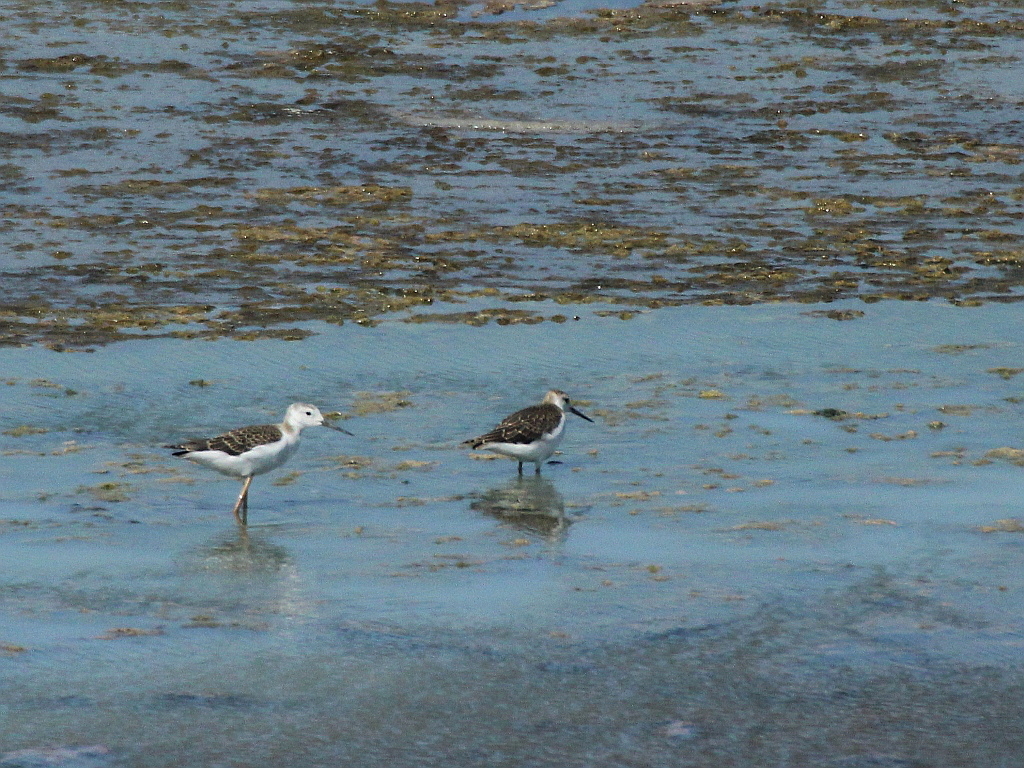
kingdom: Animalia
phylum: Chordata
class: Aves
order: Charadriiformes
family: Recurvirostridae
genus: Himantopus
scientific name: Himantopus himantopus
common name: Black-winged stilt
